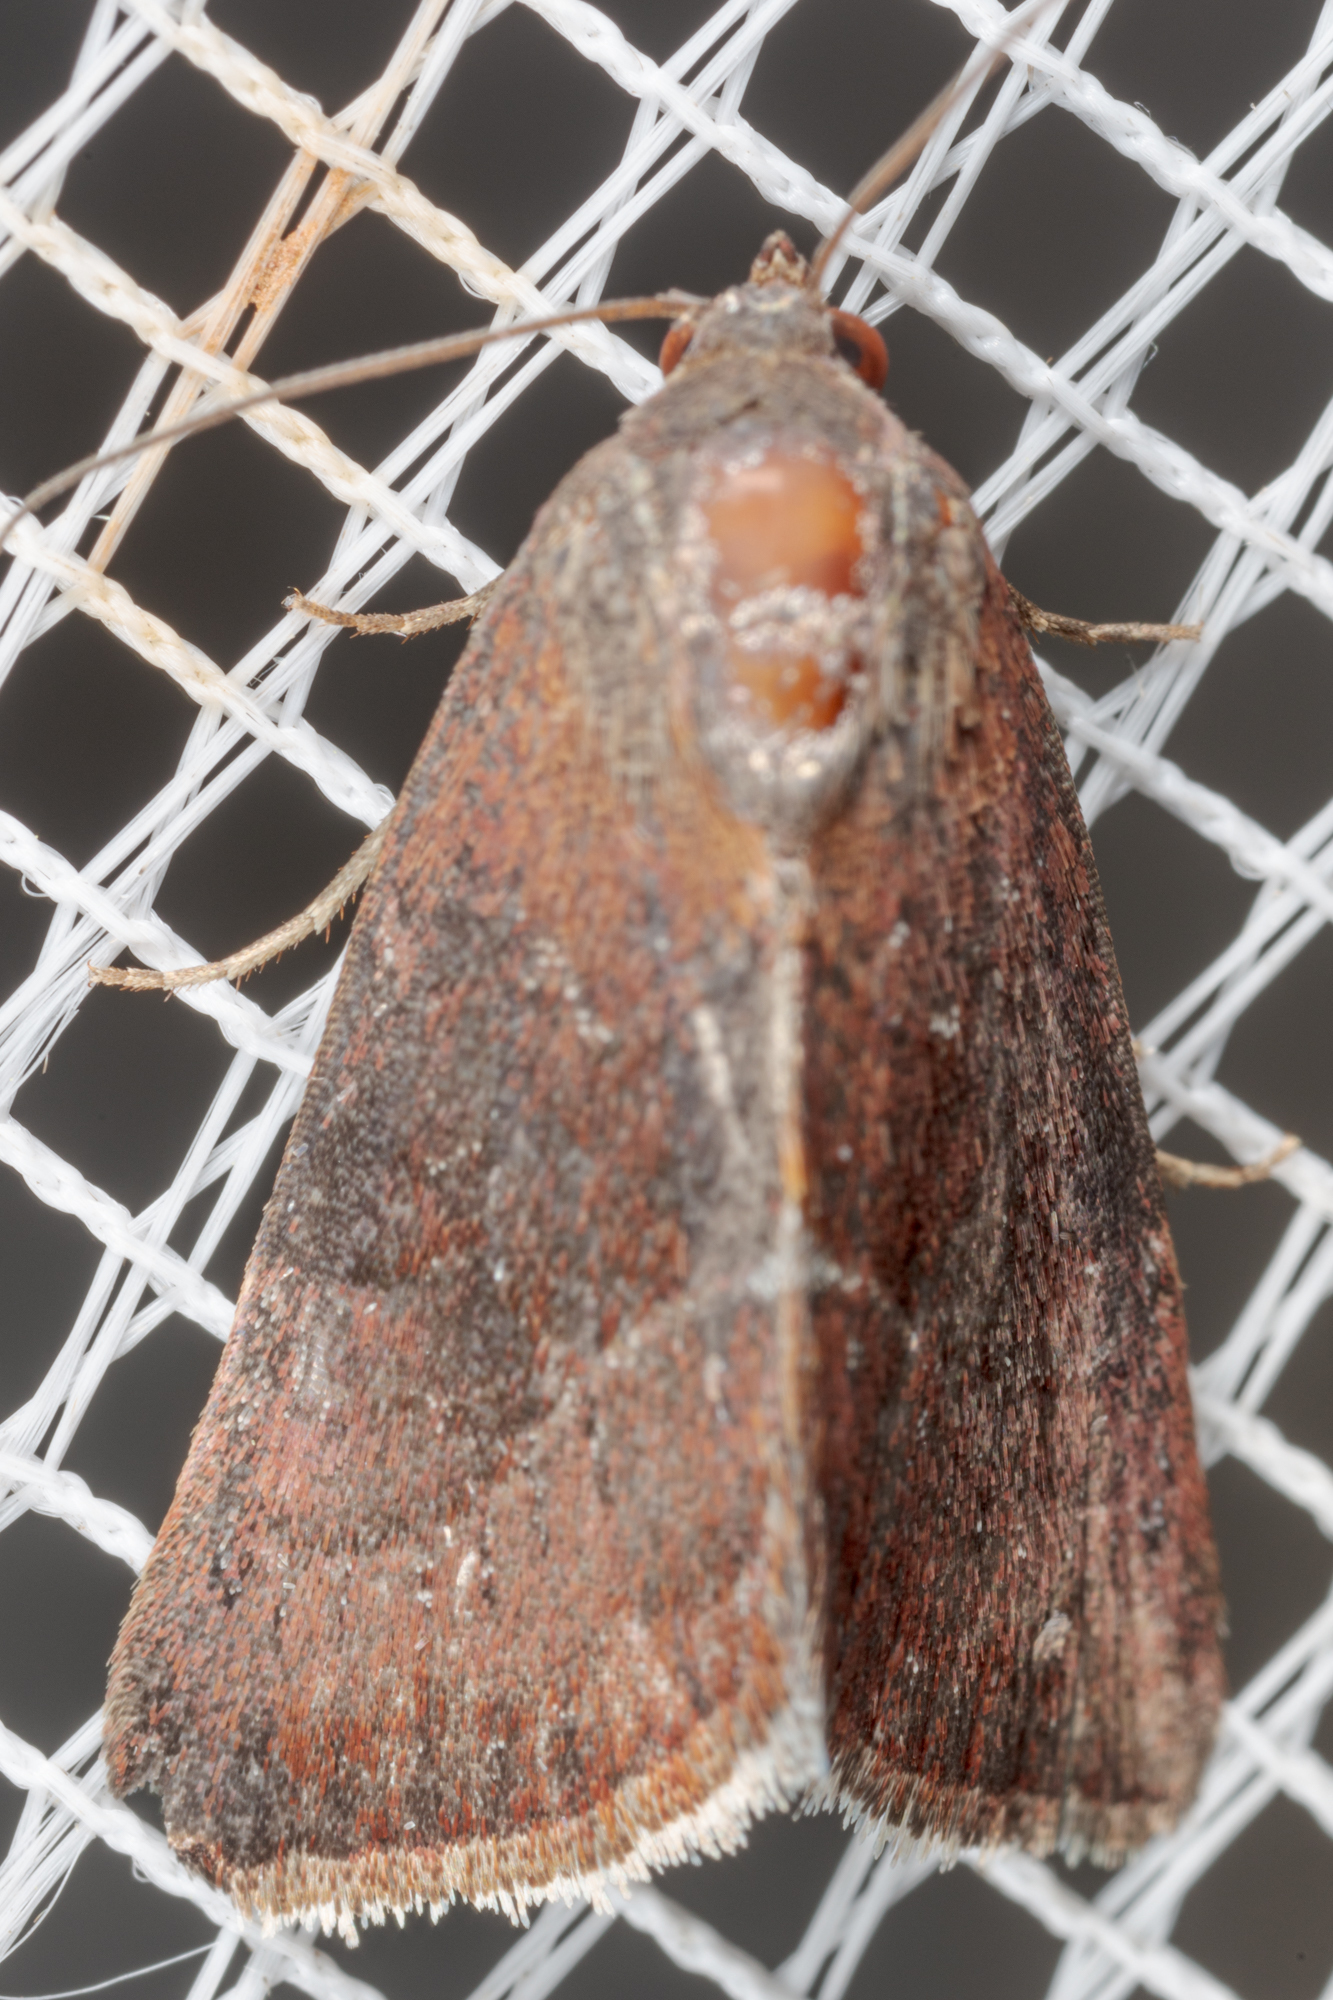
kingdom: Animalia
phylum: Arthropoda
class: Insecta
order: Lepidoptera
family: Noctuidae
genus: Galgula
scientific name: Galgula partita
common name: Wedgeling
